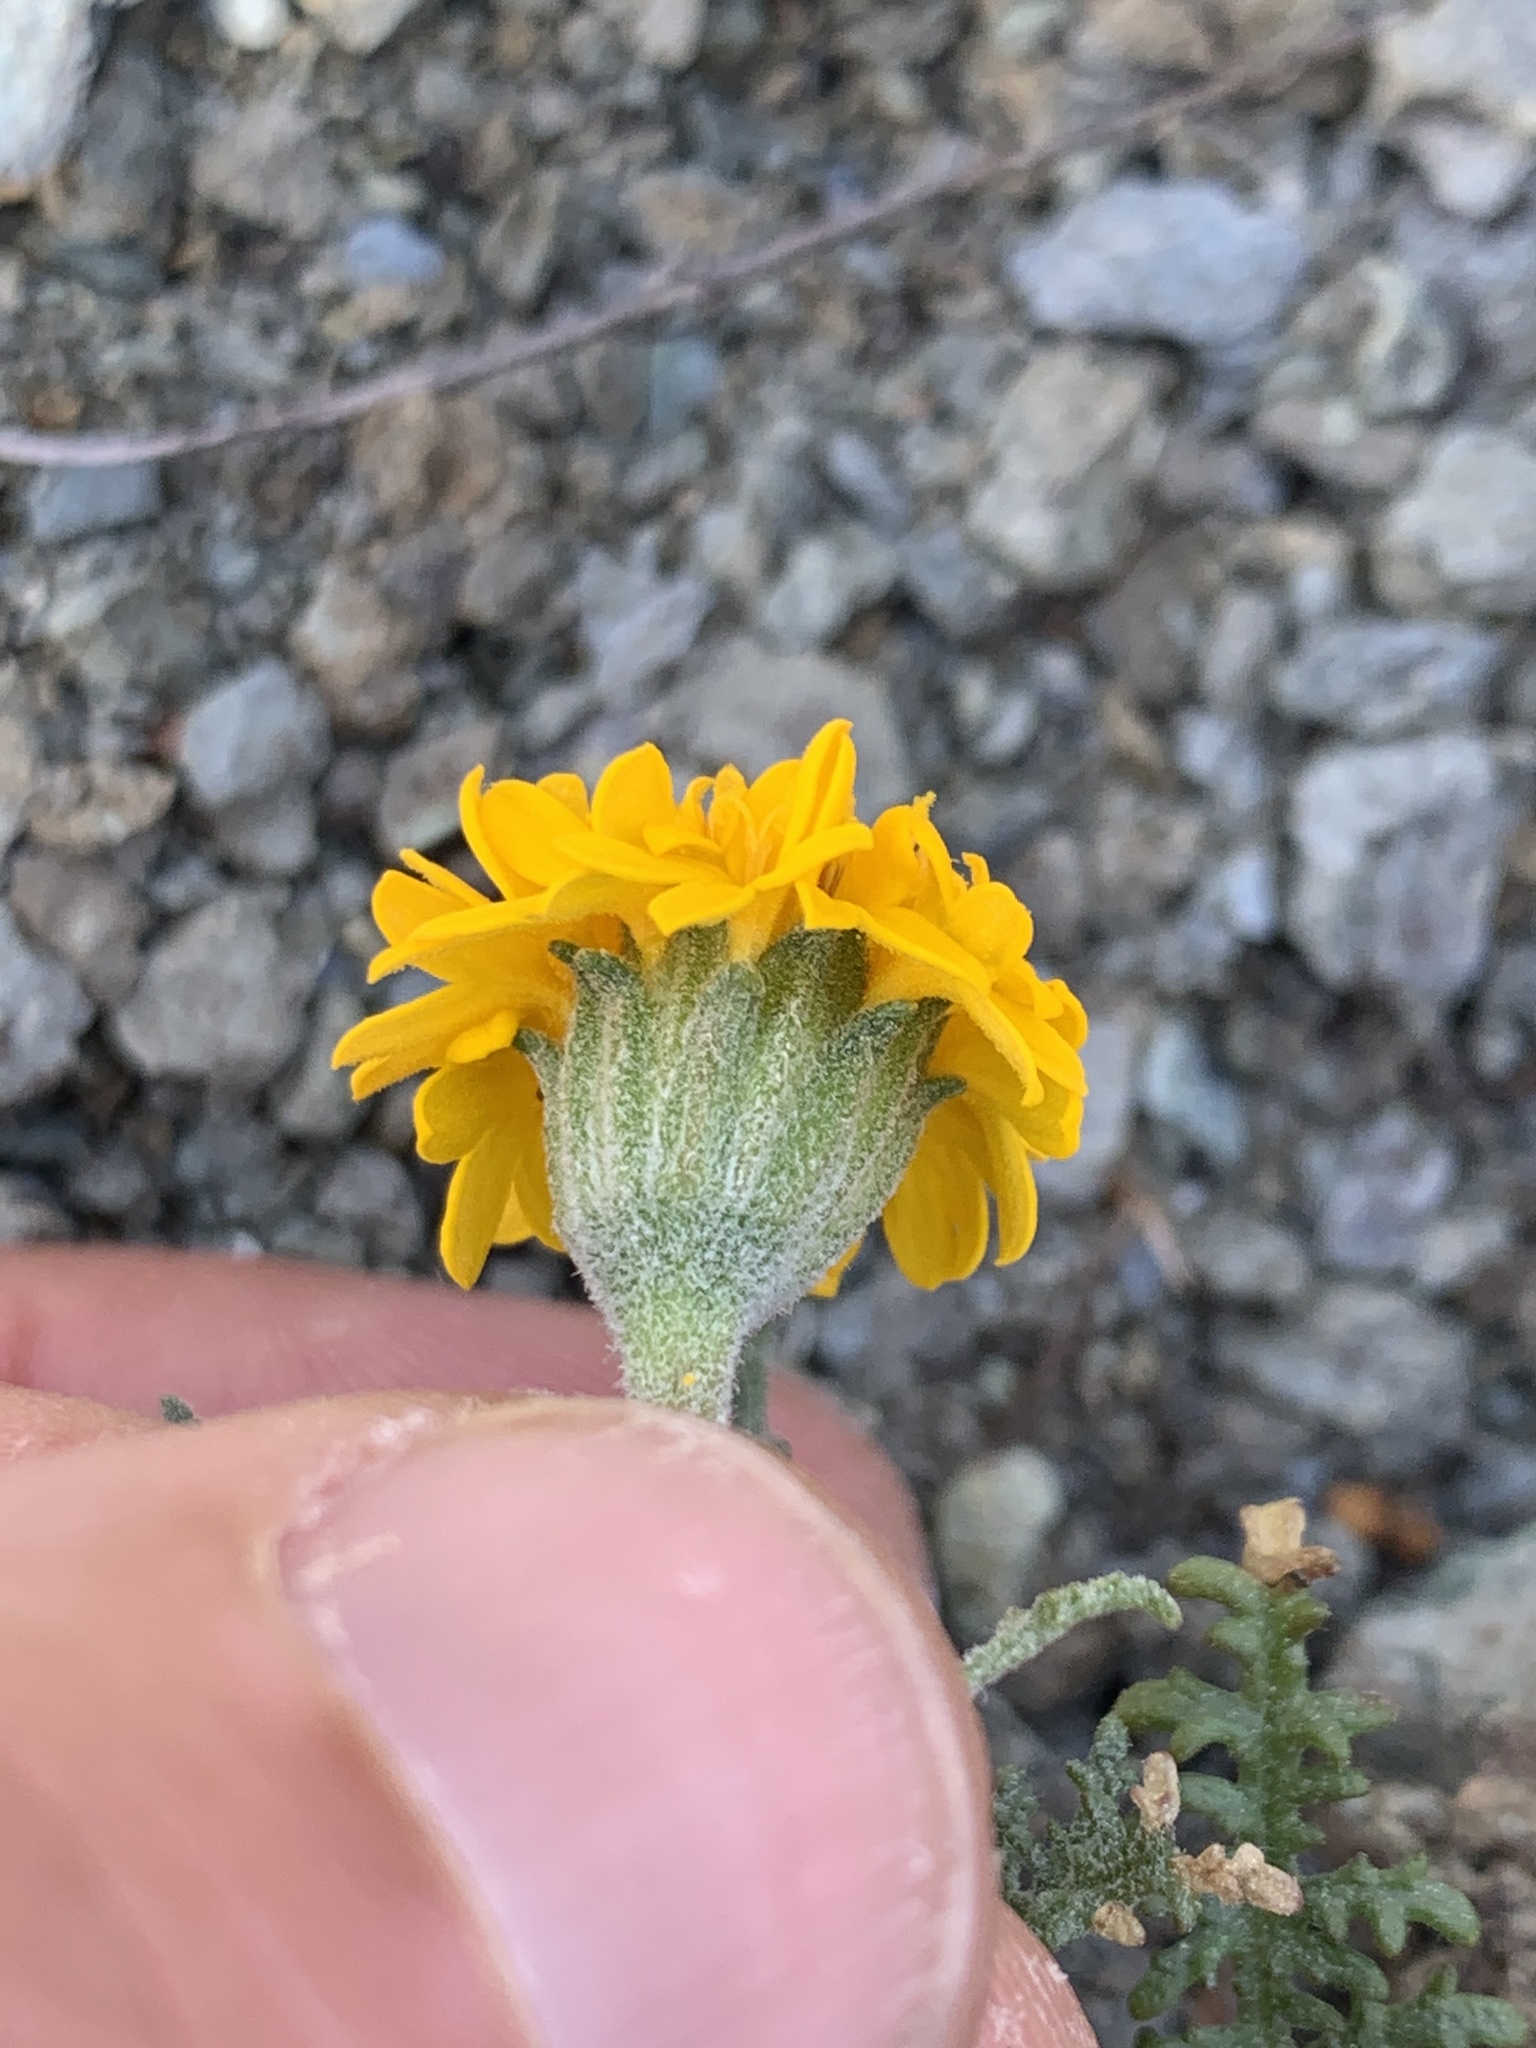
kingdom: Plantae
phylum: Tracheophyta
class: Magnoliopsida
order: Asterales
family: Asteraceae
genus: Chaenactis
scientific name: Chaenactis glabriuscula
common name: Yellow pincushion
